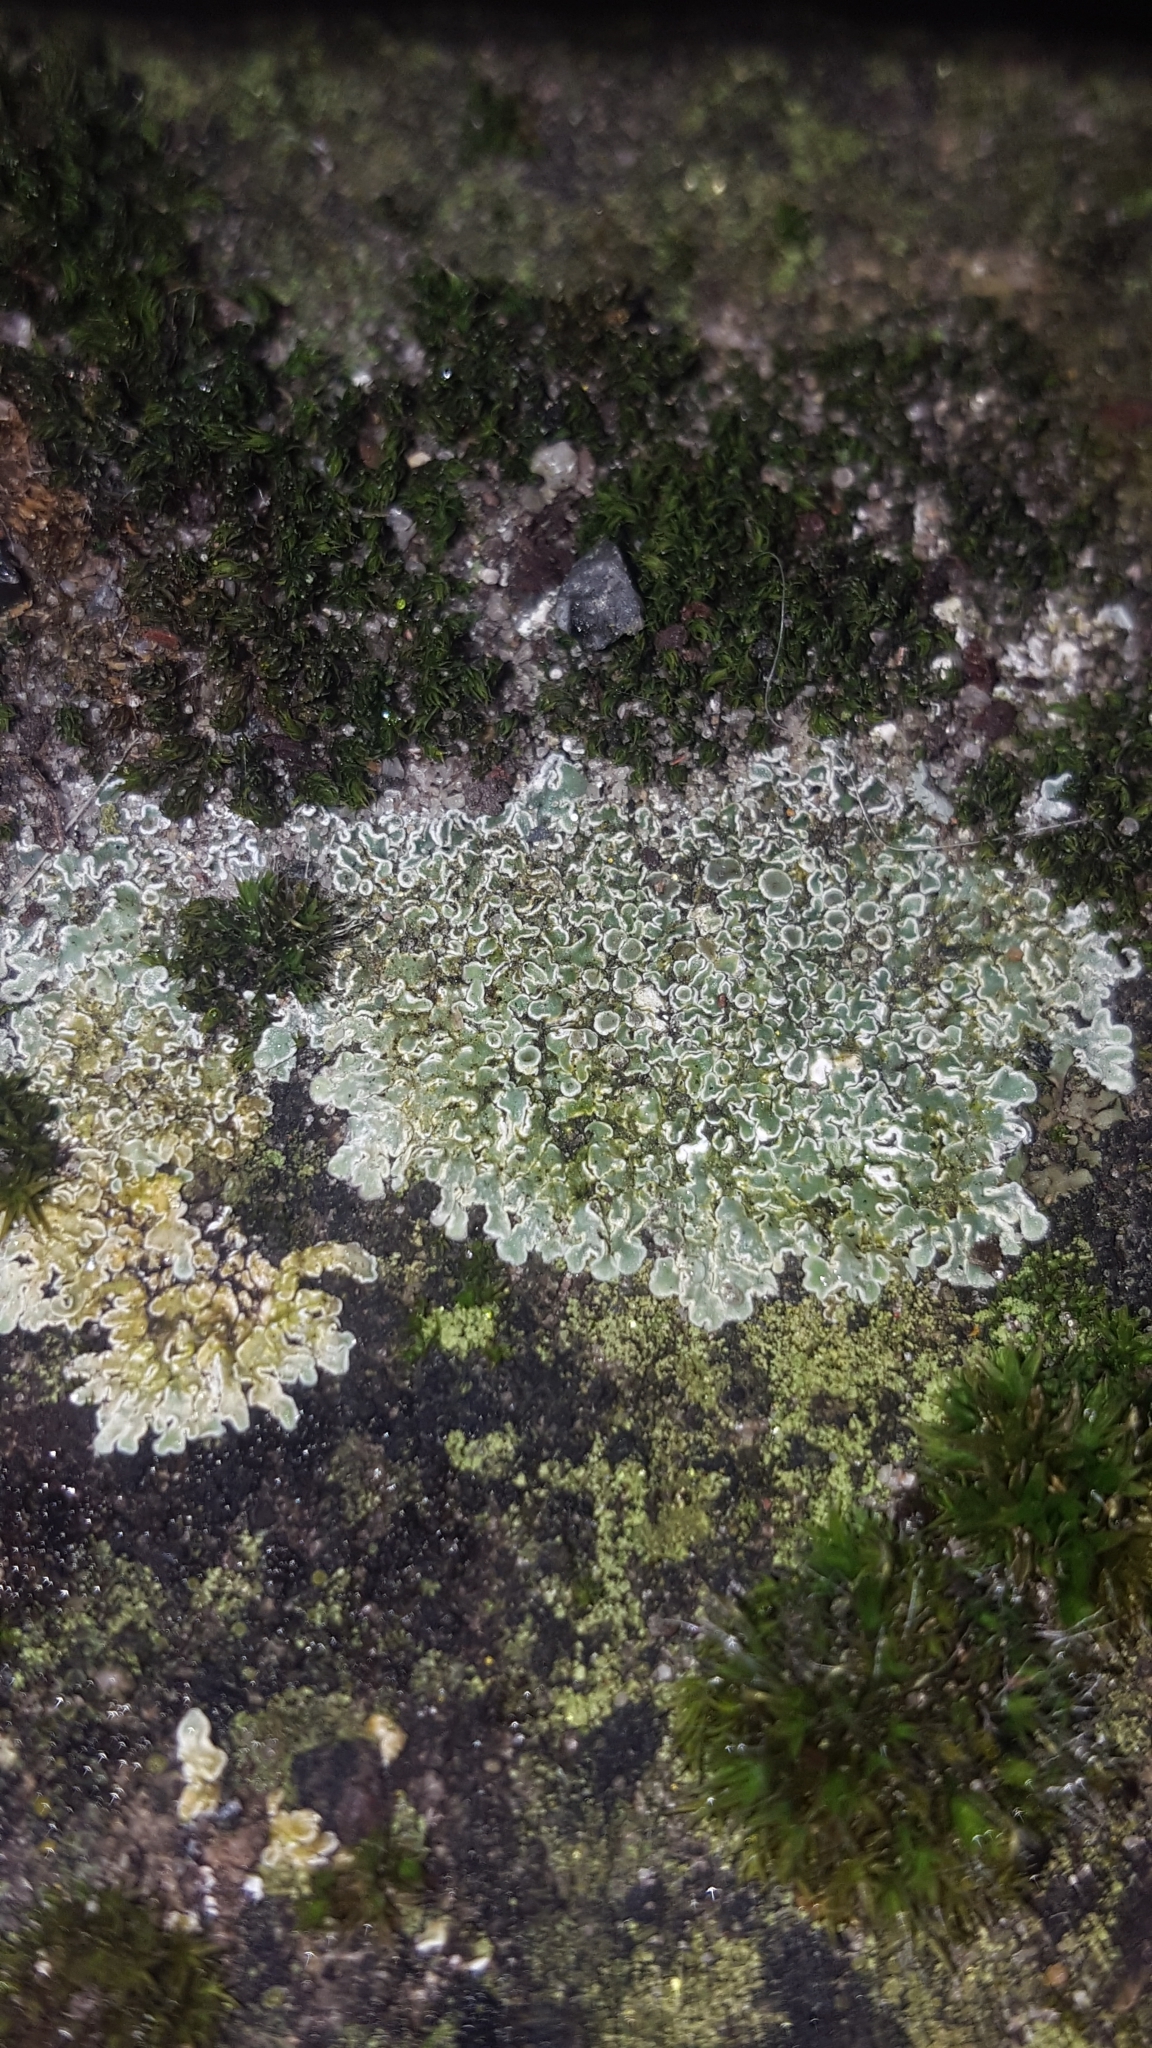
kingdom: Fungi
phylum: Ascomycota
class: Lecanoromycetes
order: Lecanorales
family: Lecanoraceae
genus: Protoparmeliopsis
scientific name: Protoparmeliopsis muralis
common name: Stonewall rim lichen
